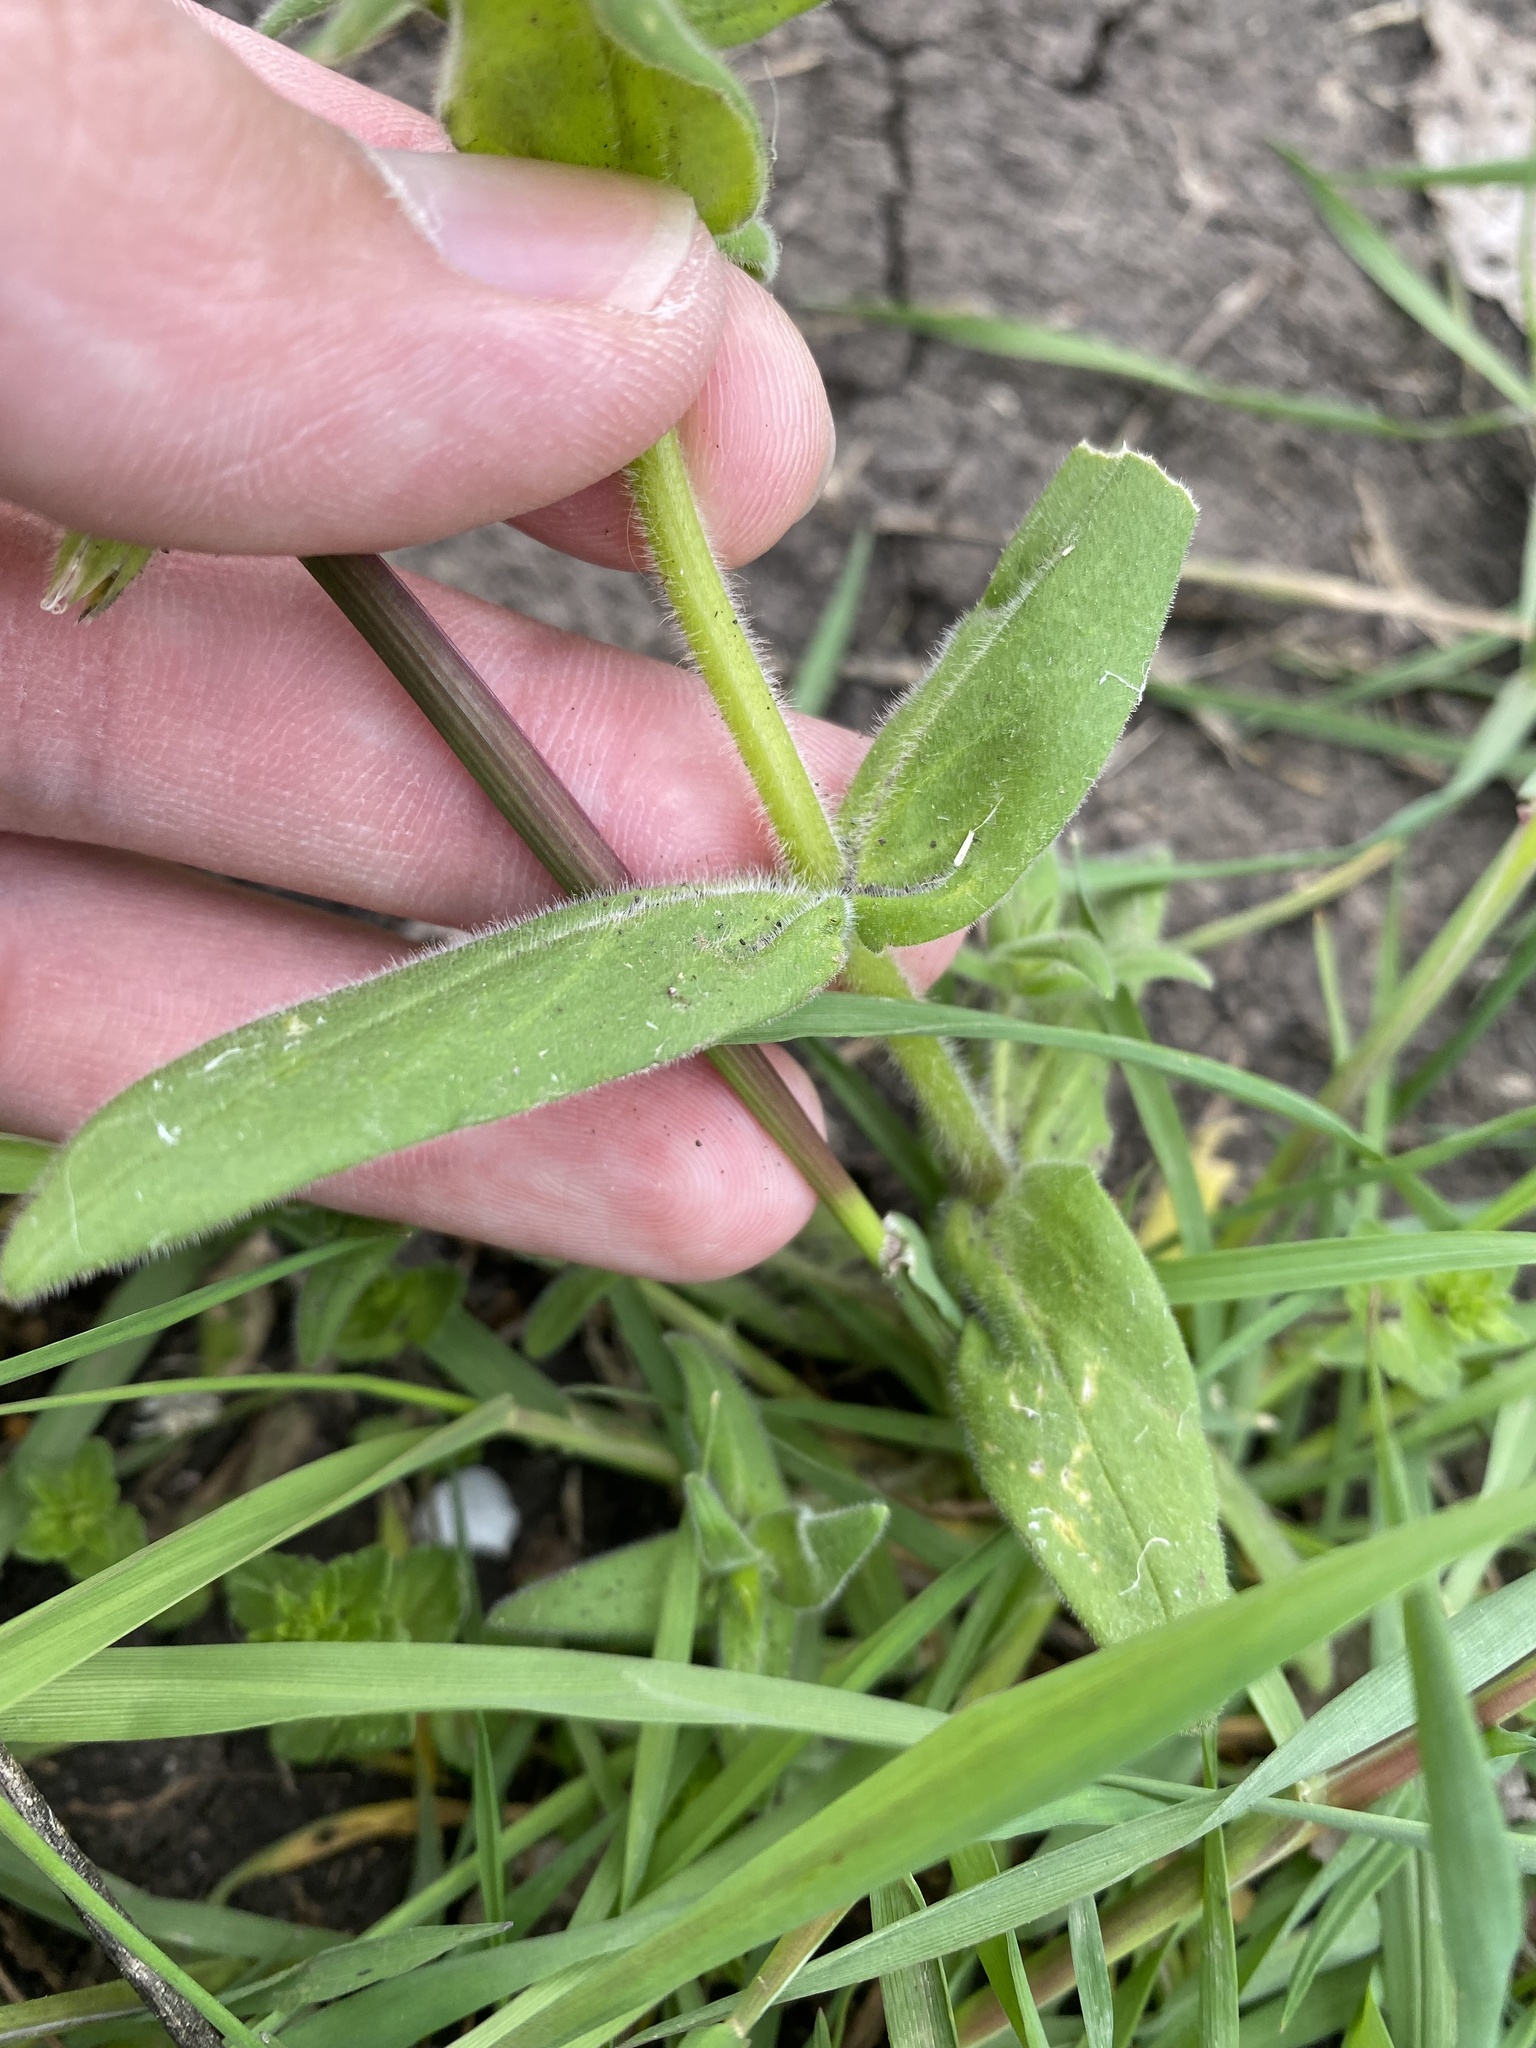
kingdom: Plantae
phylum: Tracheophyta
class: Magnoliopsida
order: Caryophyllales
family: Caryophyllaceae
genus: Cerastium
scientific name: Cerastium nemorale
